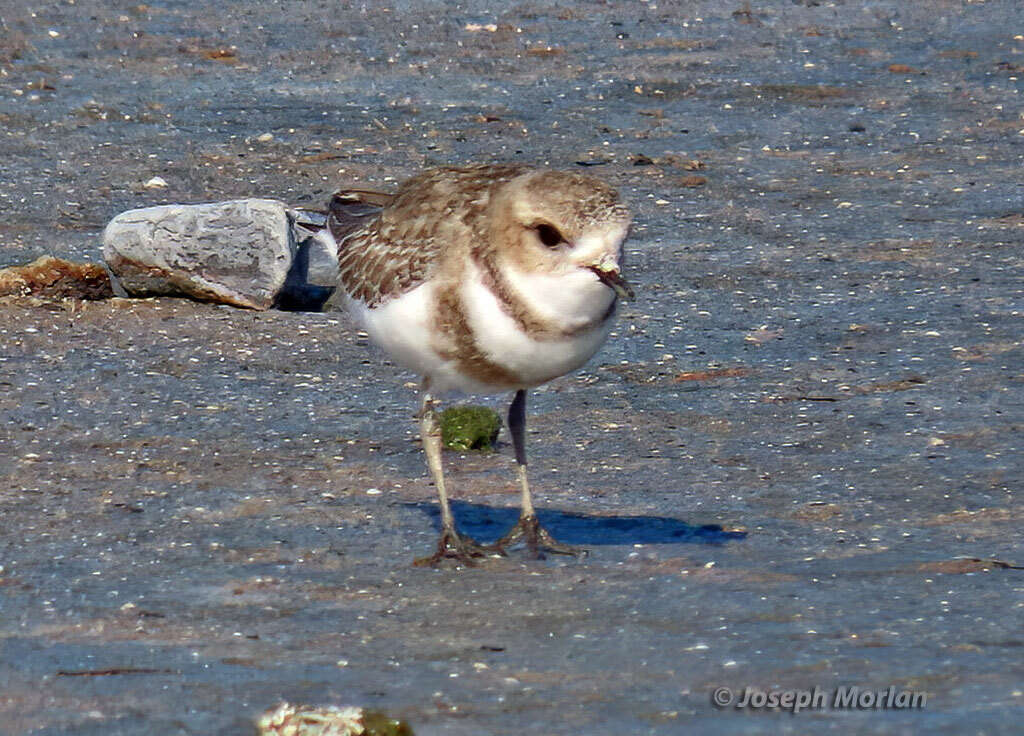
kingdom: Animalia
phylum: Chordata
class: Aves
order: Charadriiformes
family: Charadriidae
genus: Anarhynchus
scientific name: Anarhynchus
